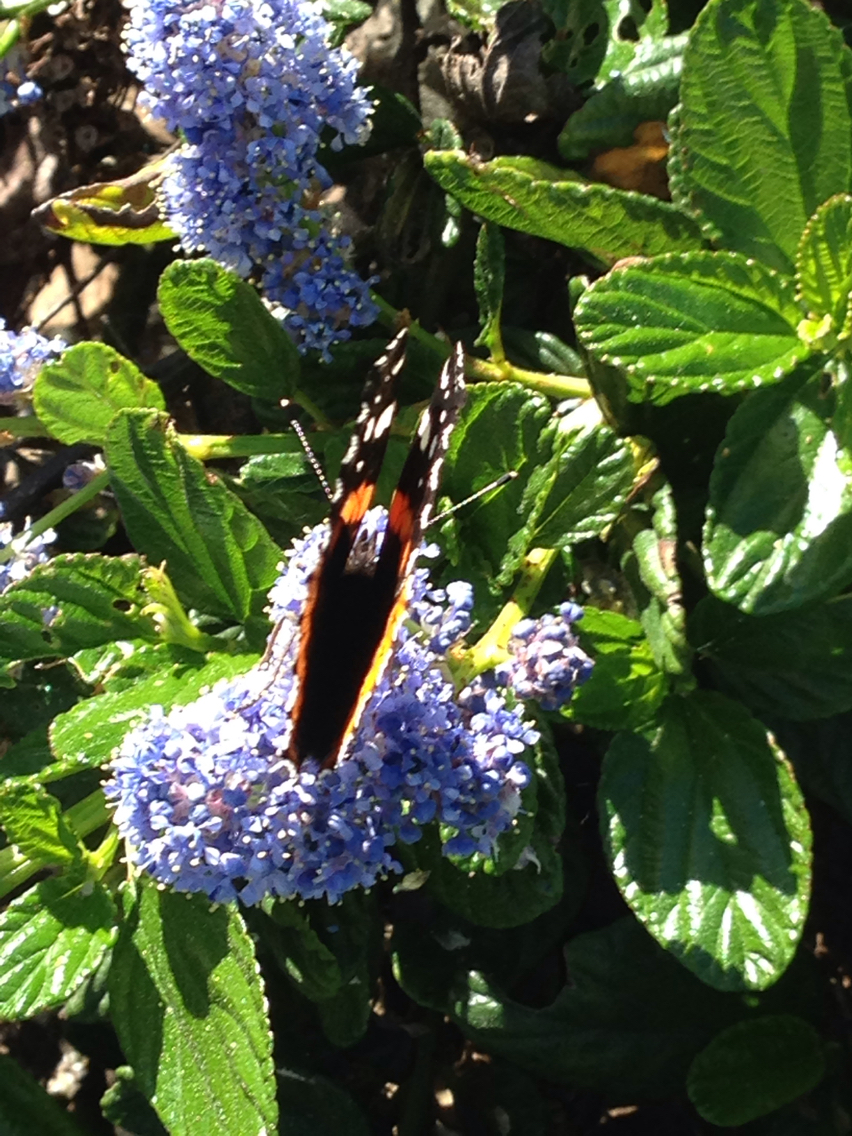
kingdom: Animalia
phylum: Arthropoda
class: Insecta
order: Lepidoptera
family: Nymphalidae
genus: Vanessa
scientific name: Vanessa atalanta
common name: Red admiral
